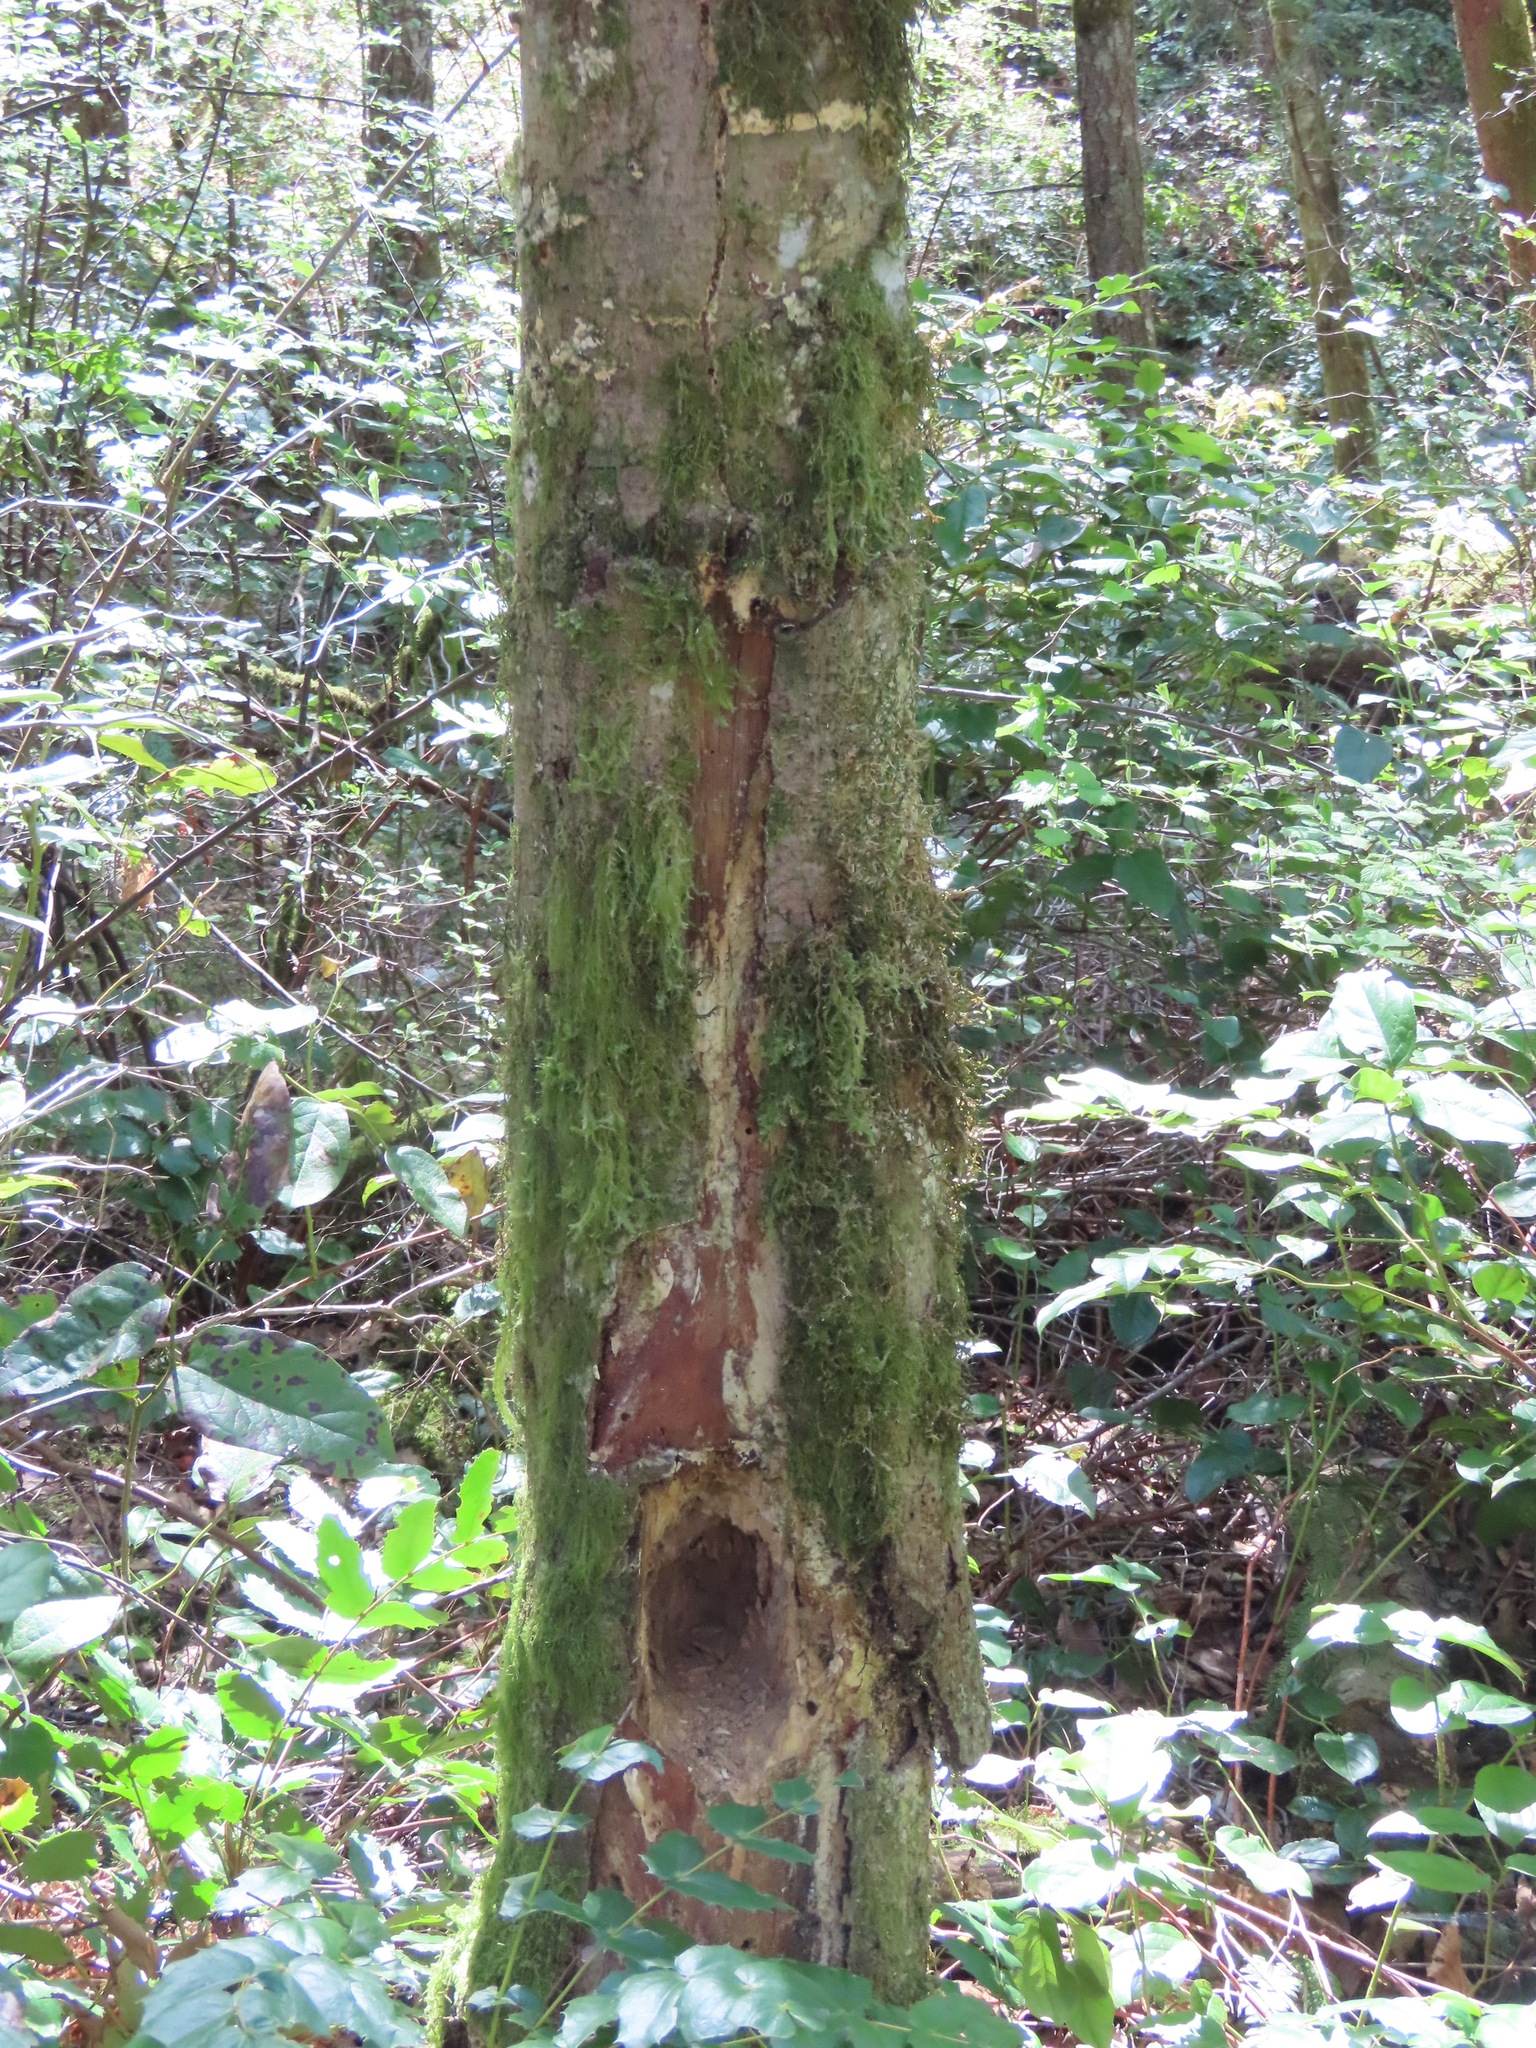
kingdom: Animalia
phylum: Chordata
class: Aves
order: Piciformes
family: Picidae
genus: Dryocopus
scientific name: Dryocopus pileatus
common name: Pileated woodpecker
